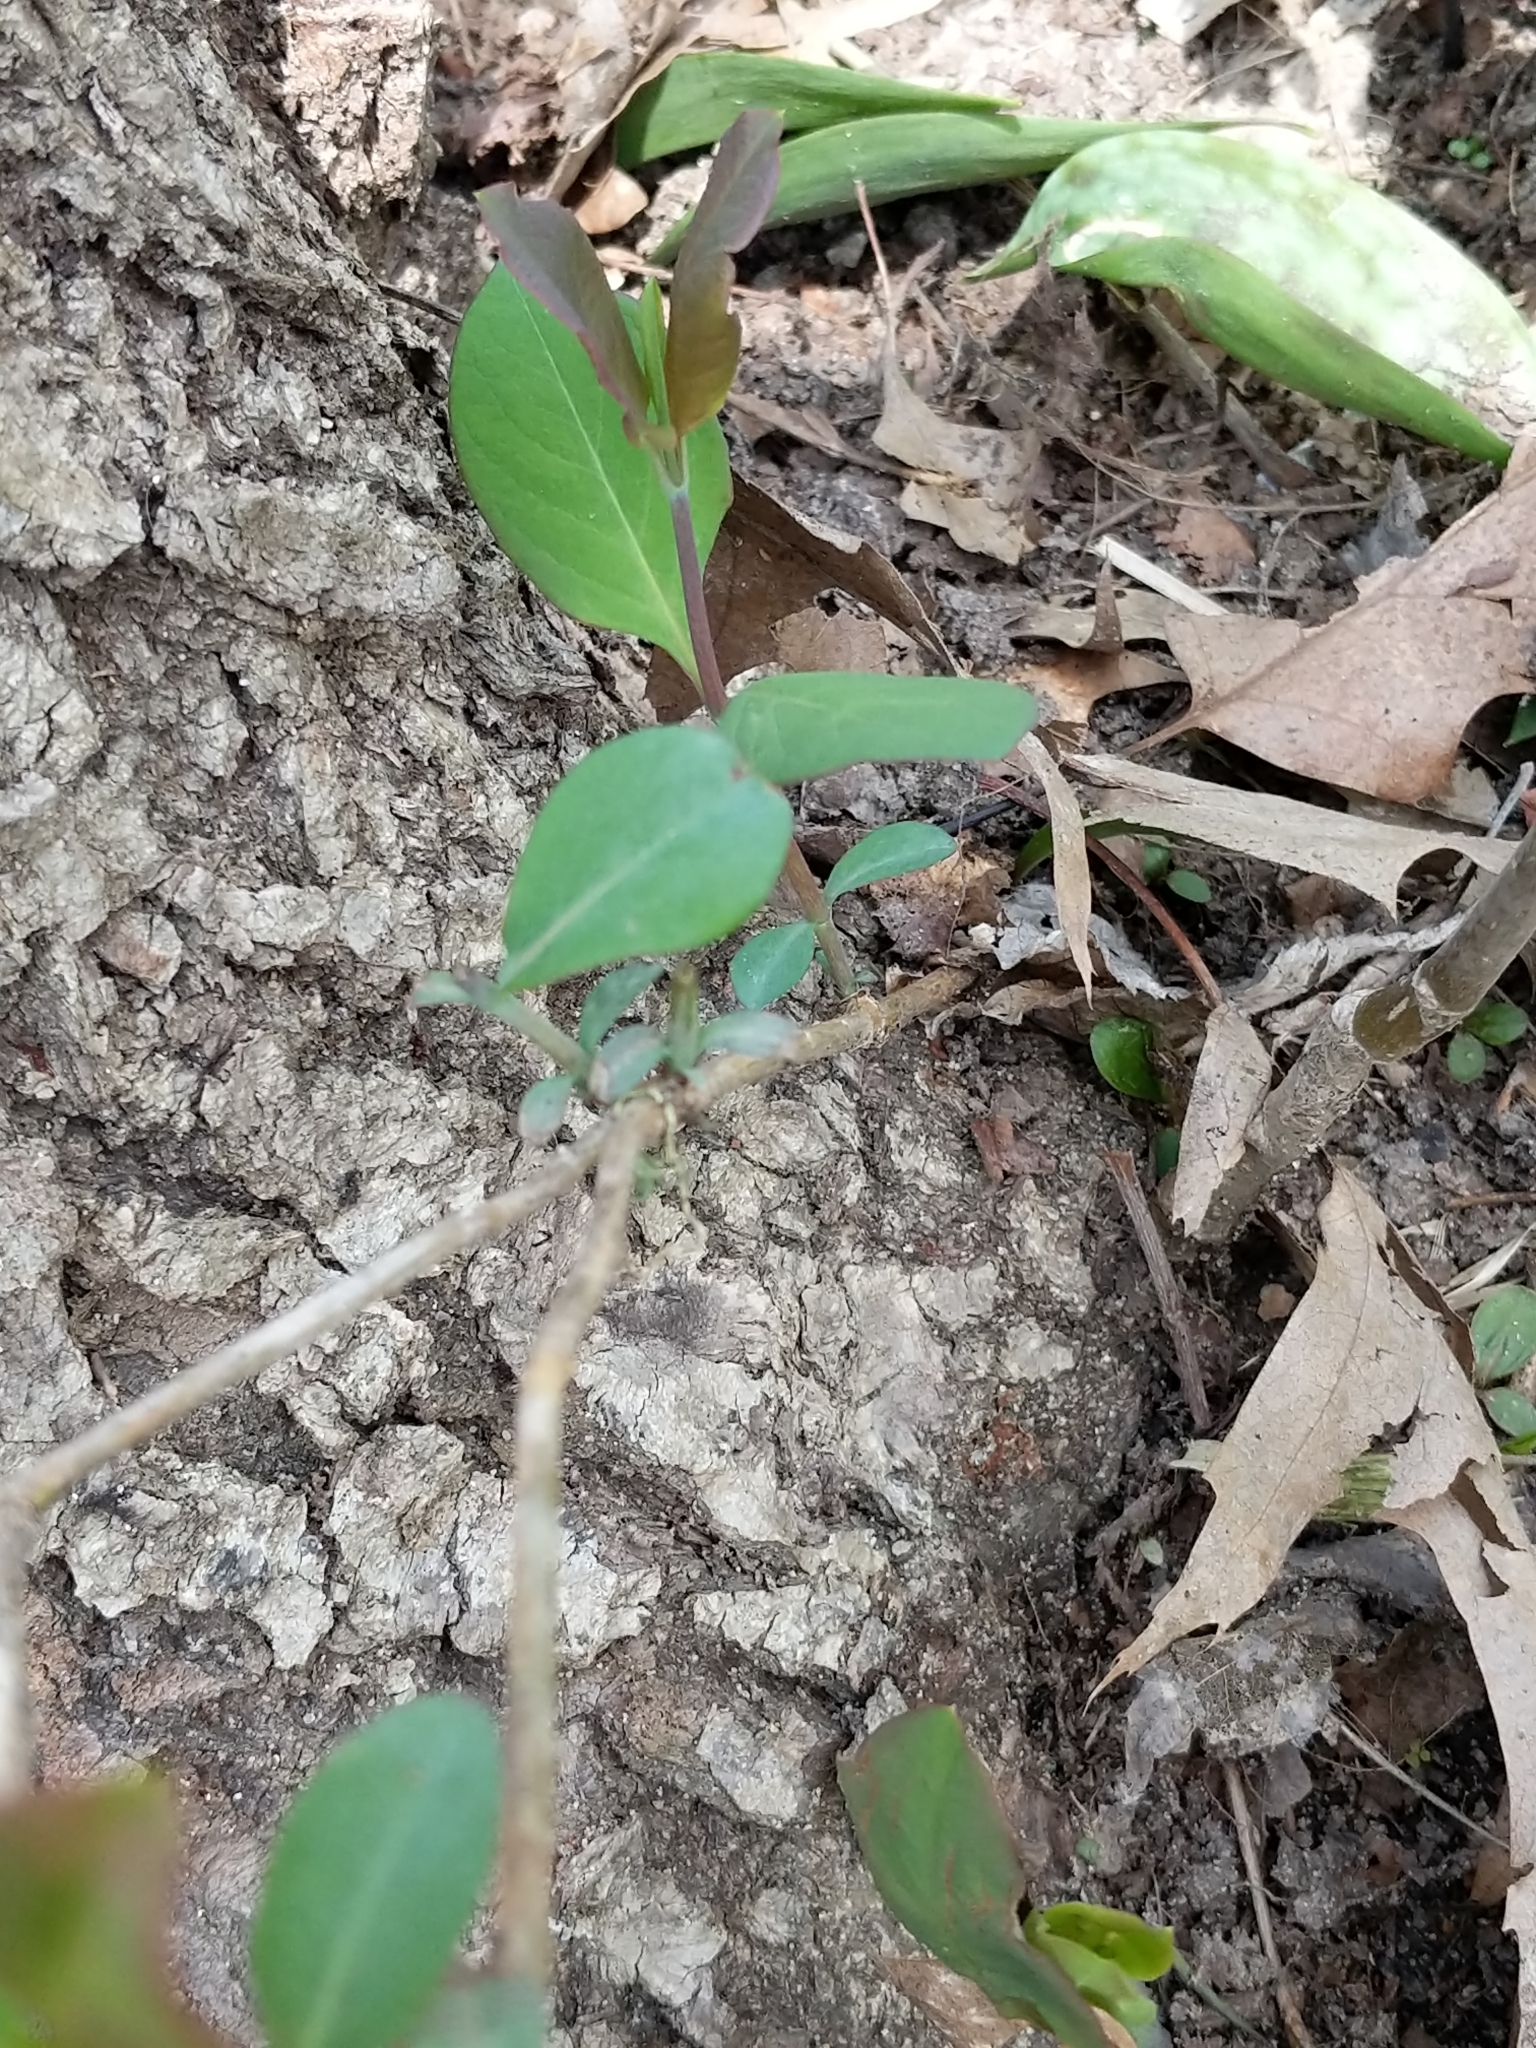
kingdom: Plantae
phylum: Tracheophyta
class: Magnoliopsida
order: Dipsacales
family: Caprifoliaceae
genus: Lonicera
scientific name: Lonicera reticulata
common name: Grape honeysuckle
